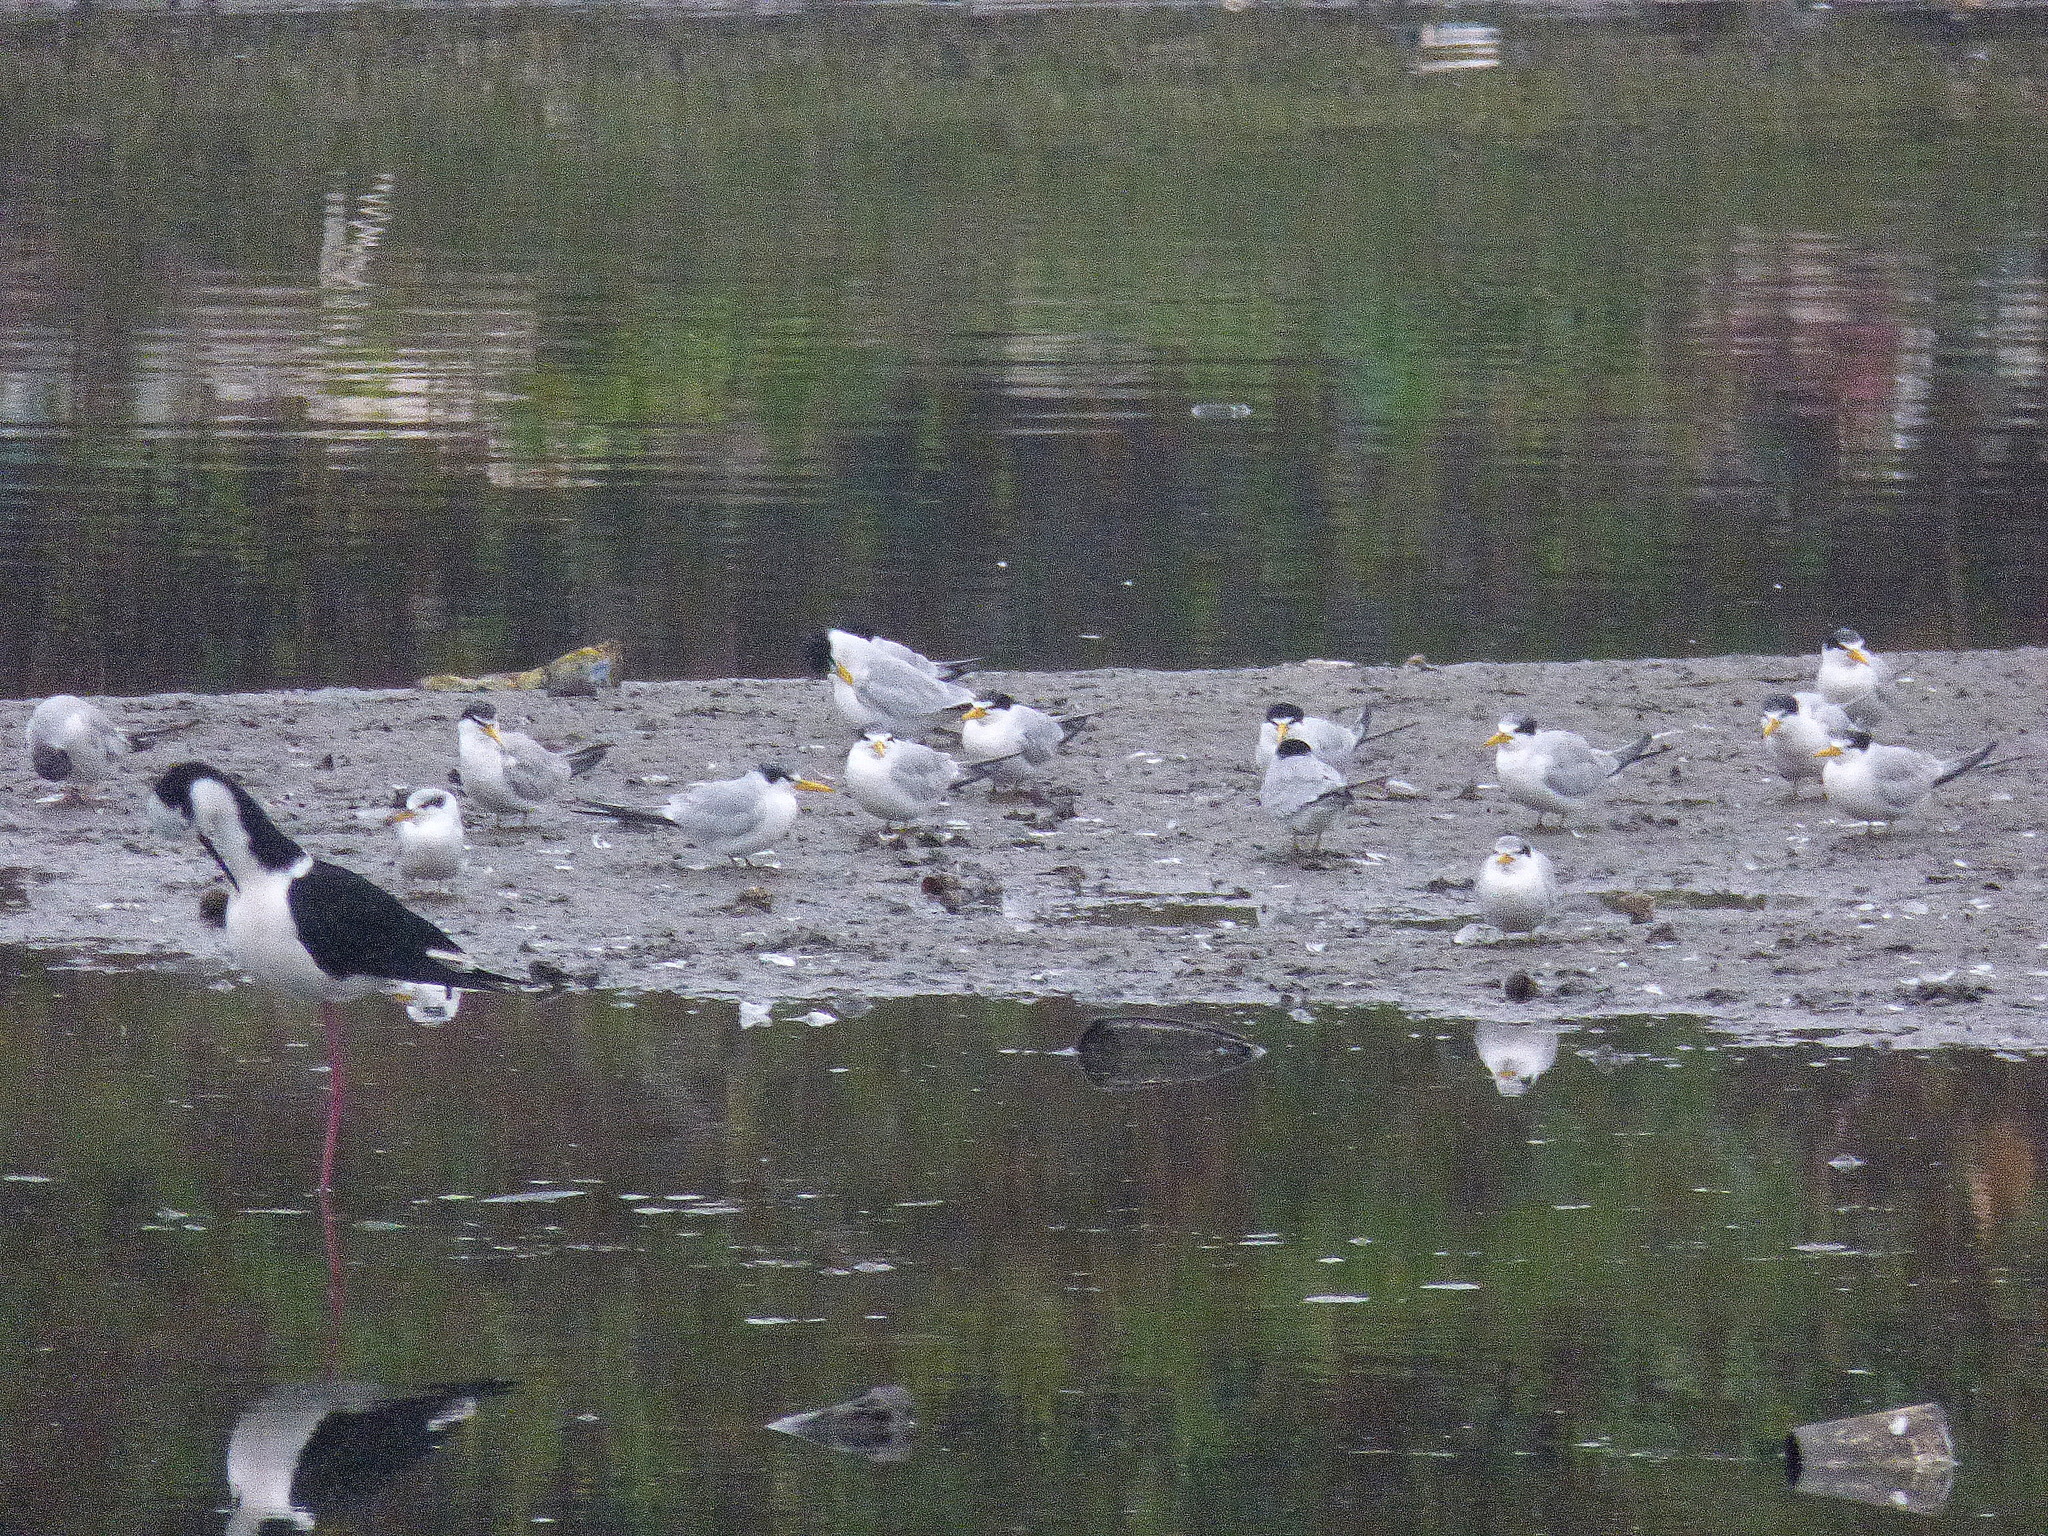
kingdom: Animalia
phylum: Chordata
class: Aves
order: Anseriformes
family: Anatidae
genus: Callonetta
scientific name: Callonetta leucophrys
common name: Ringed teal
